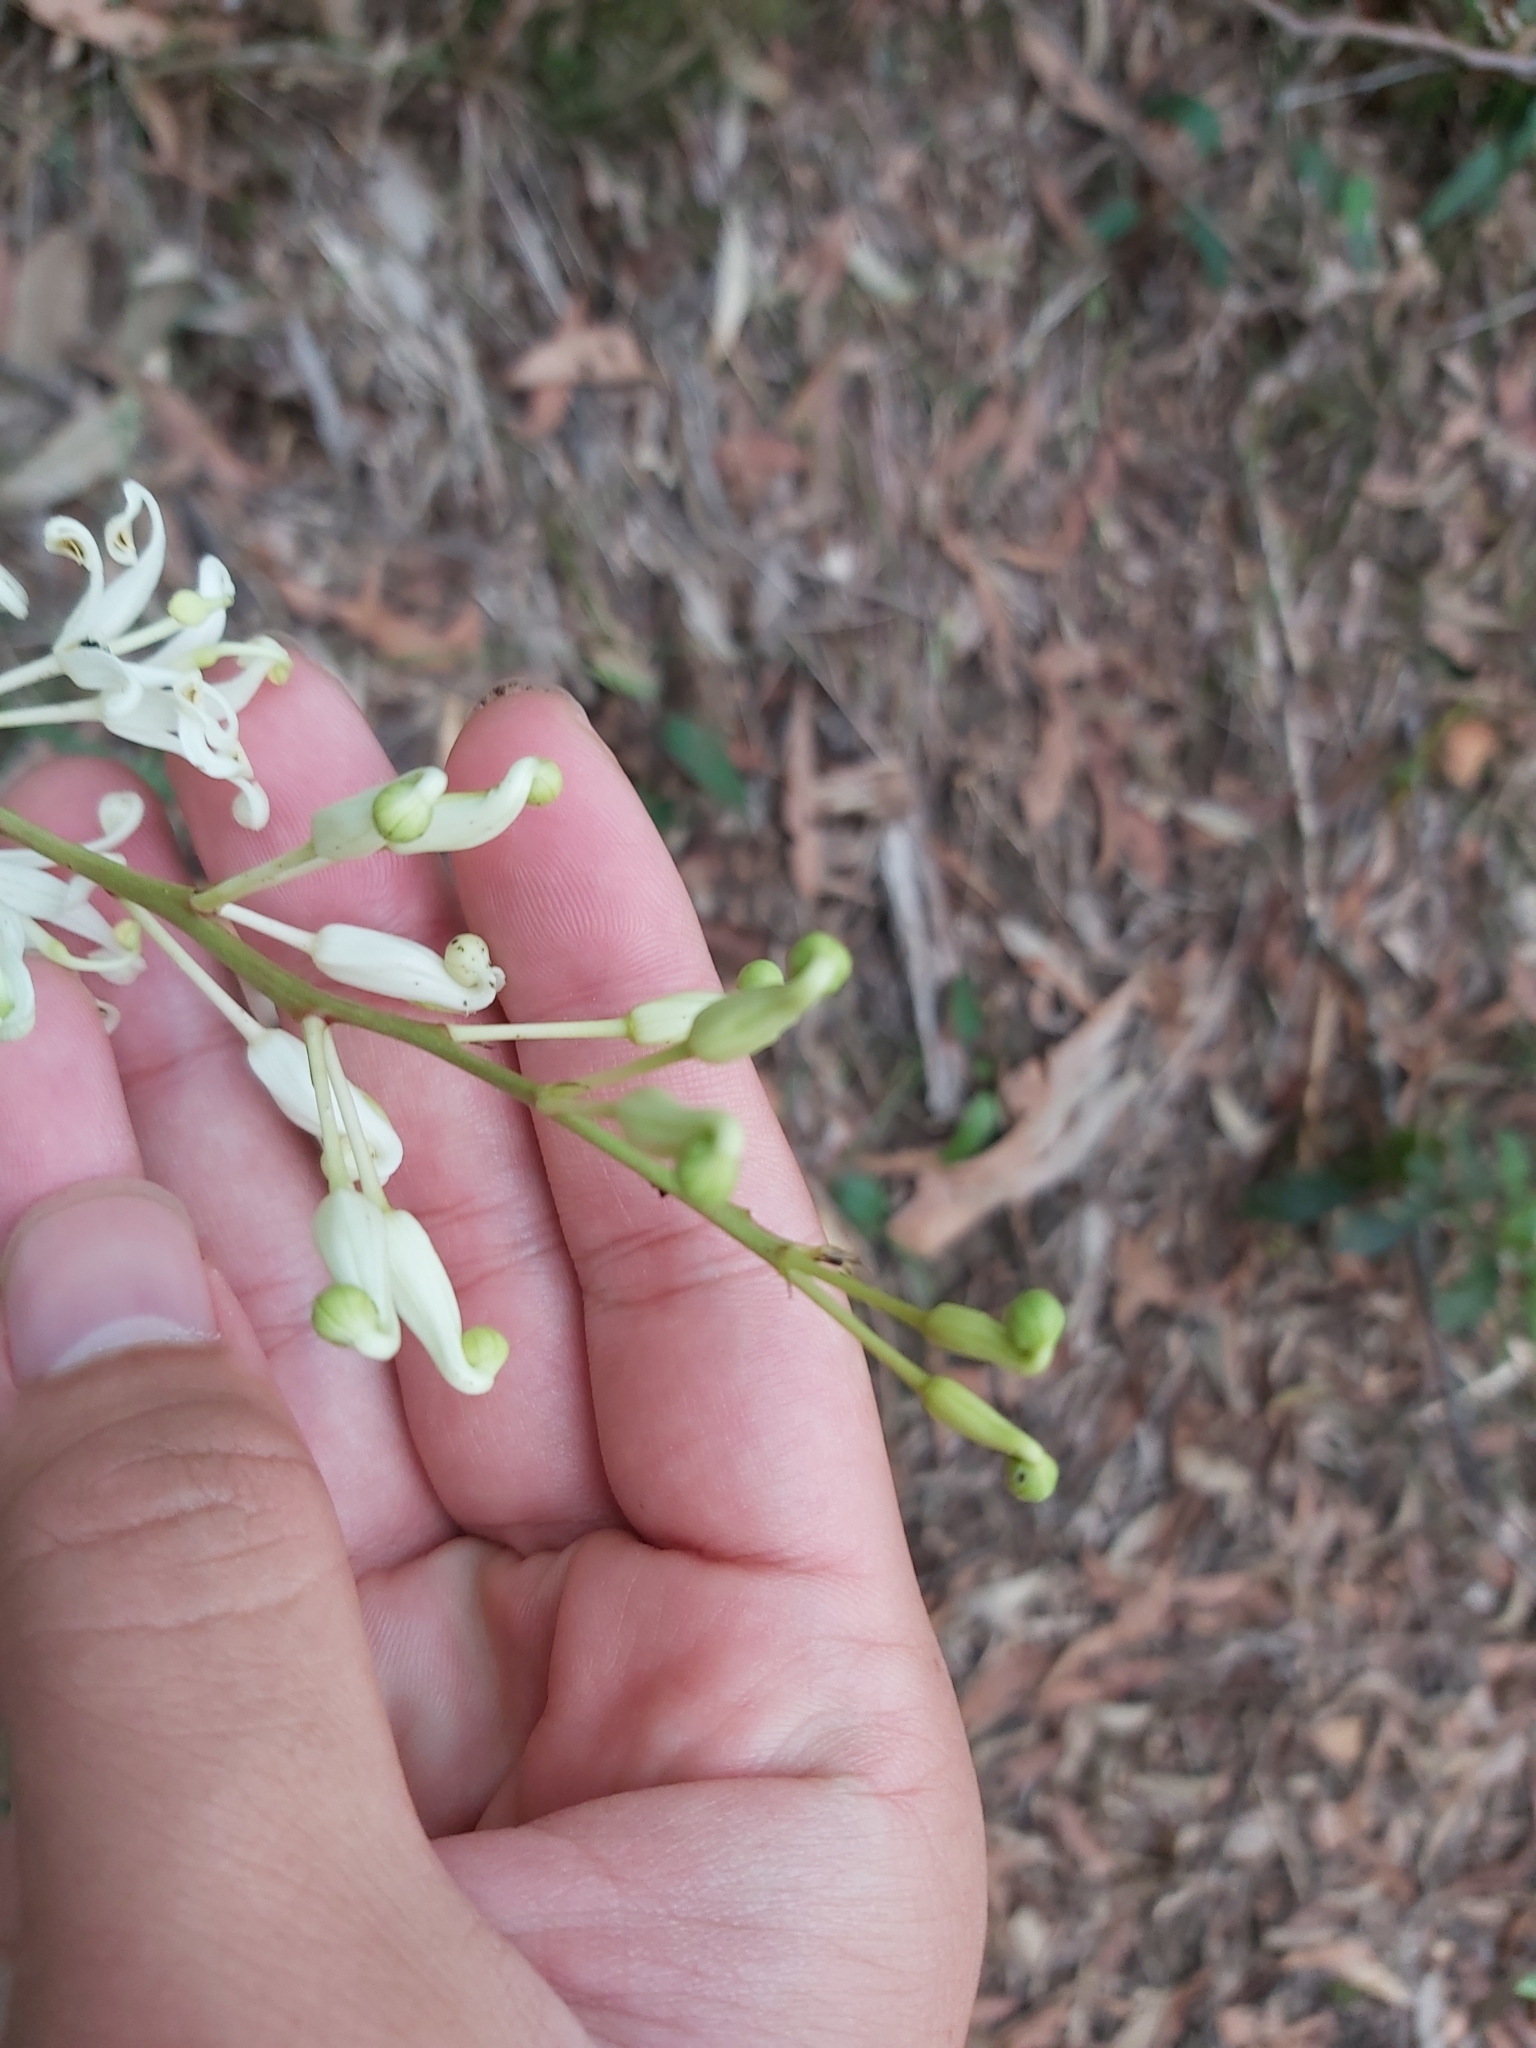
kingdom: Plantae
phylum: Tracheophyta
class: Magnoliopsida
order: Proteales
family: Proteaceae
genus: Lomatia
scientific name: Lomatia silaifolia
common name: Crinklebush
